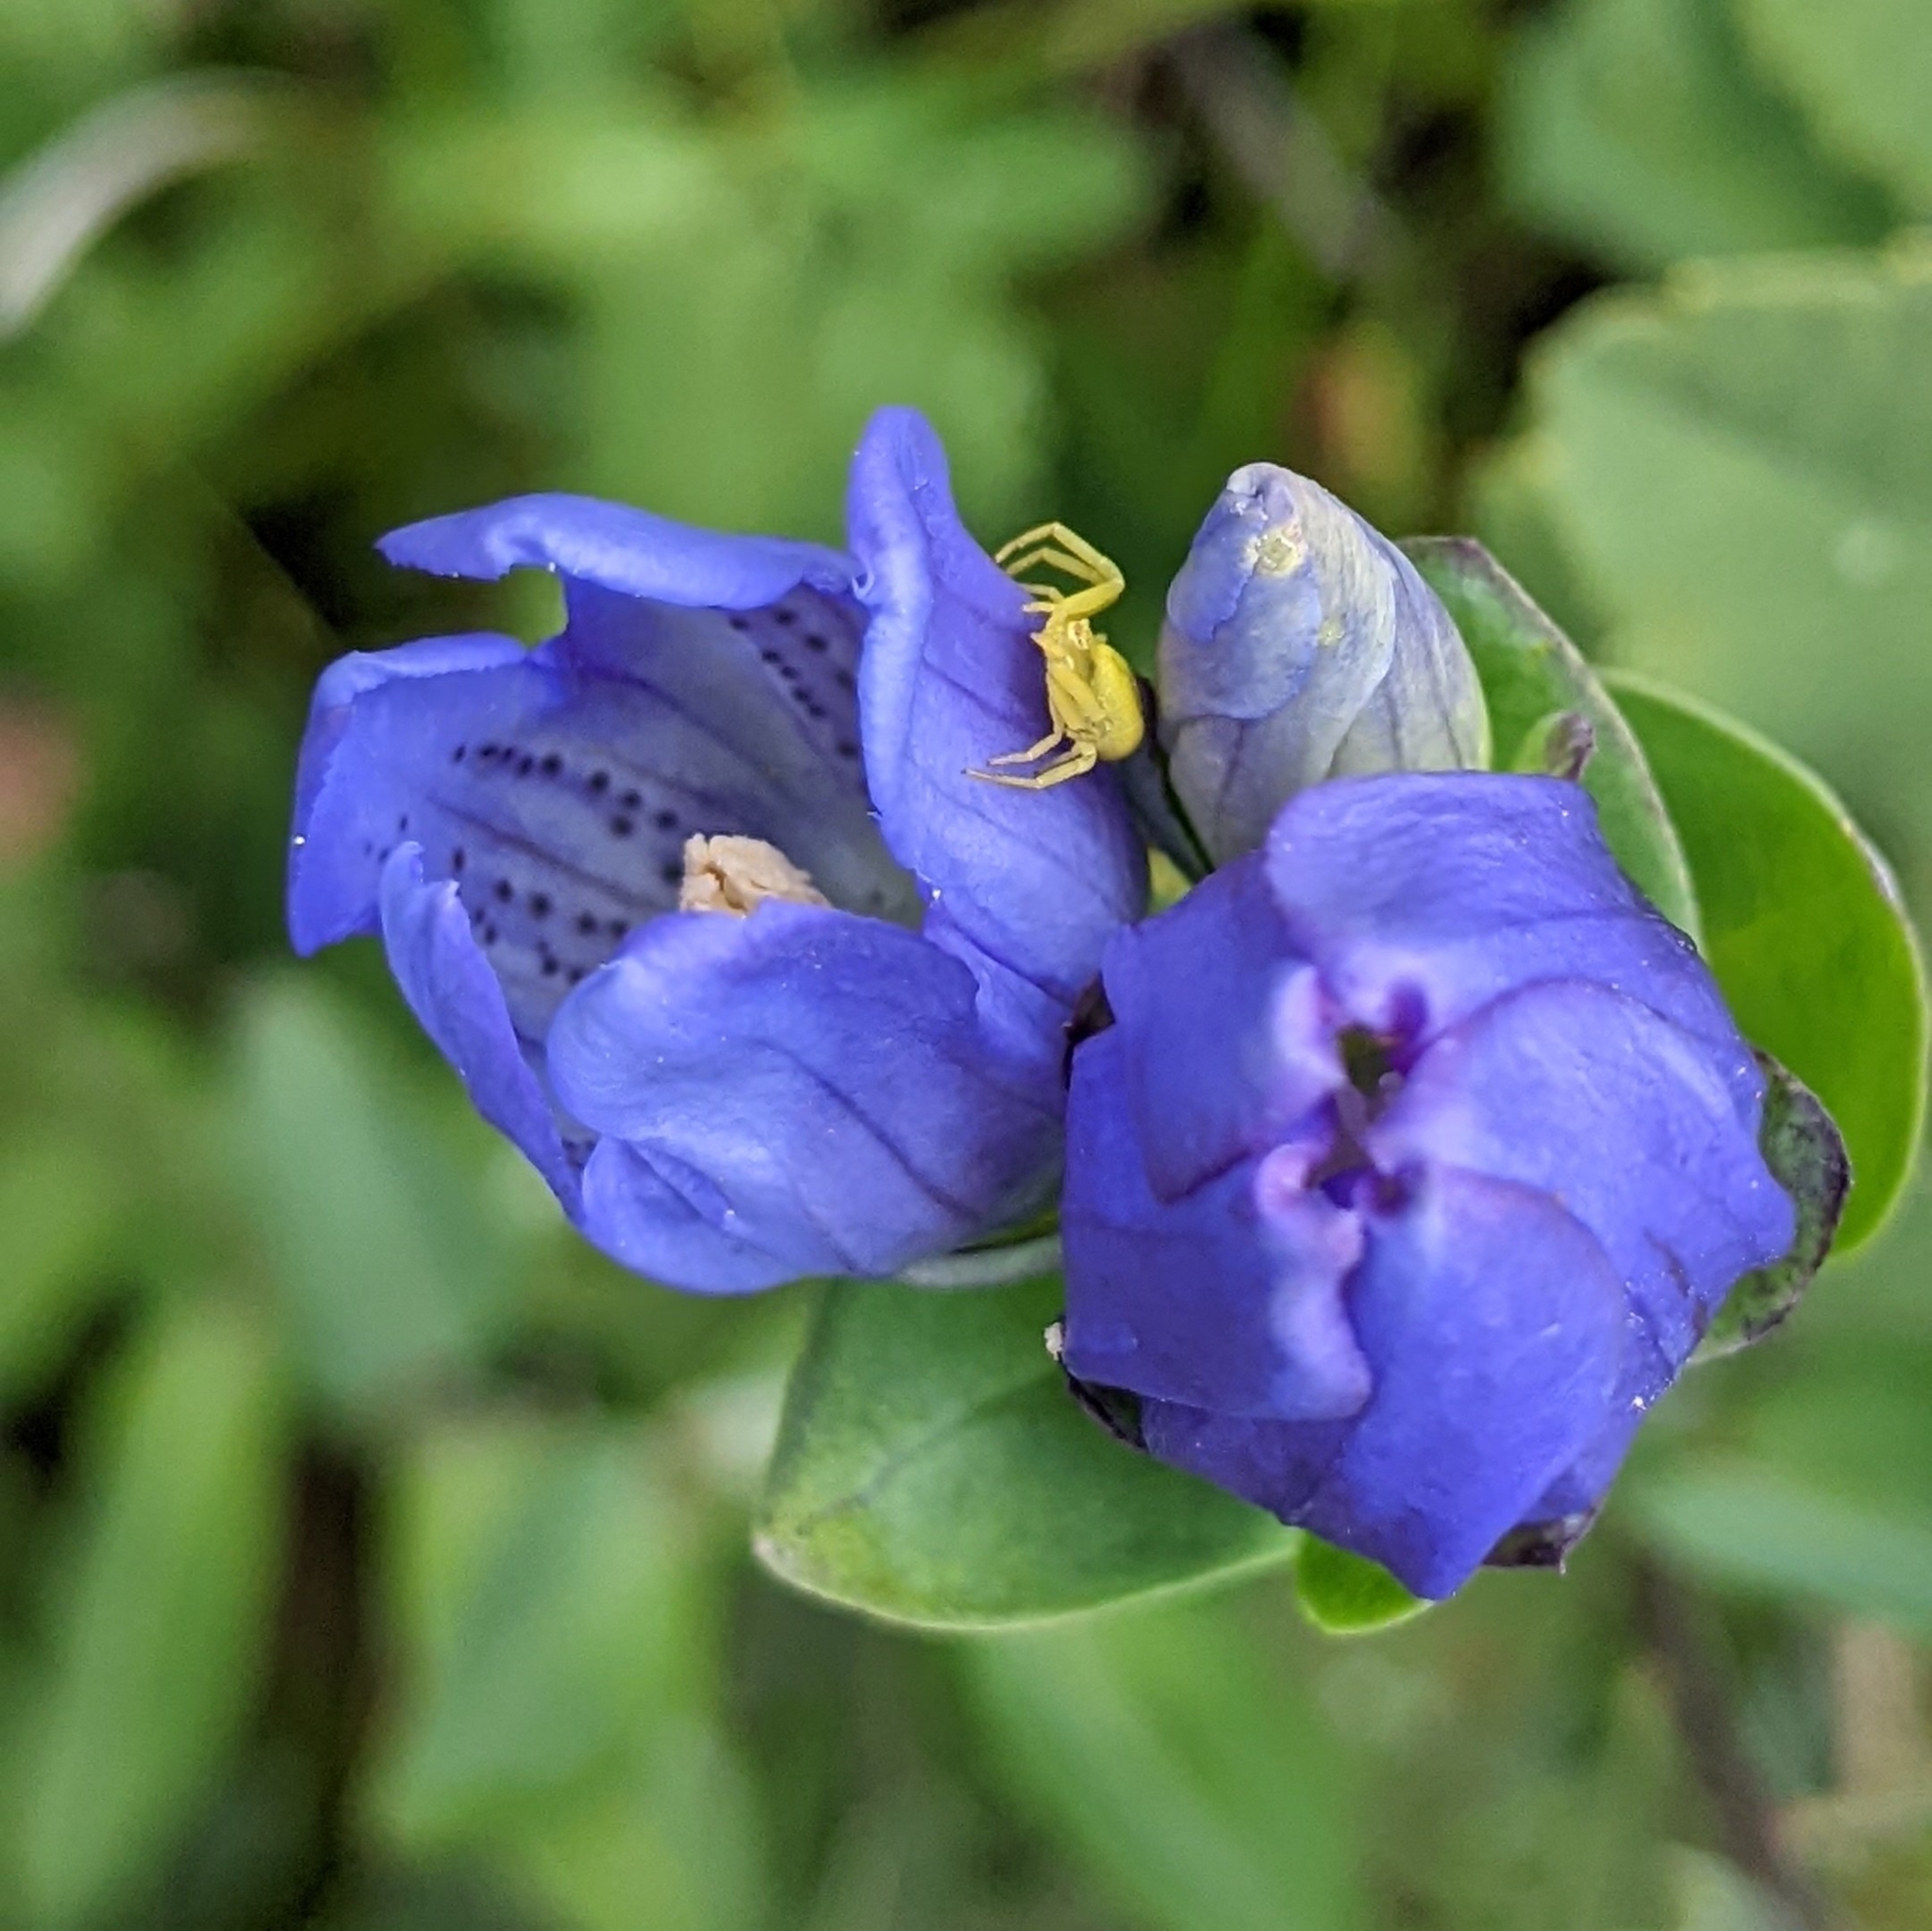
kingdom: Animalia
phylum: Arthropoda
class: Arachnida
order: Araneae
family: Thomisidae
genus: Misumena
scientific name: Misumena vatia
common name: Goldenrod crab spider
